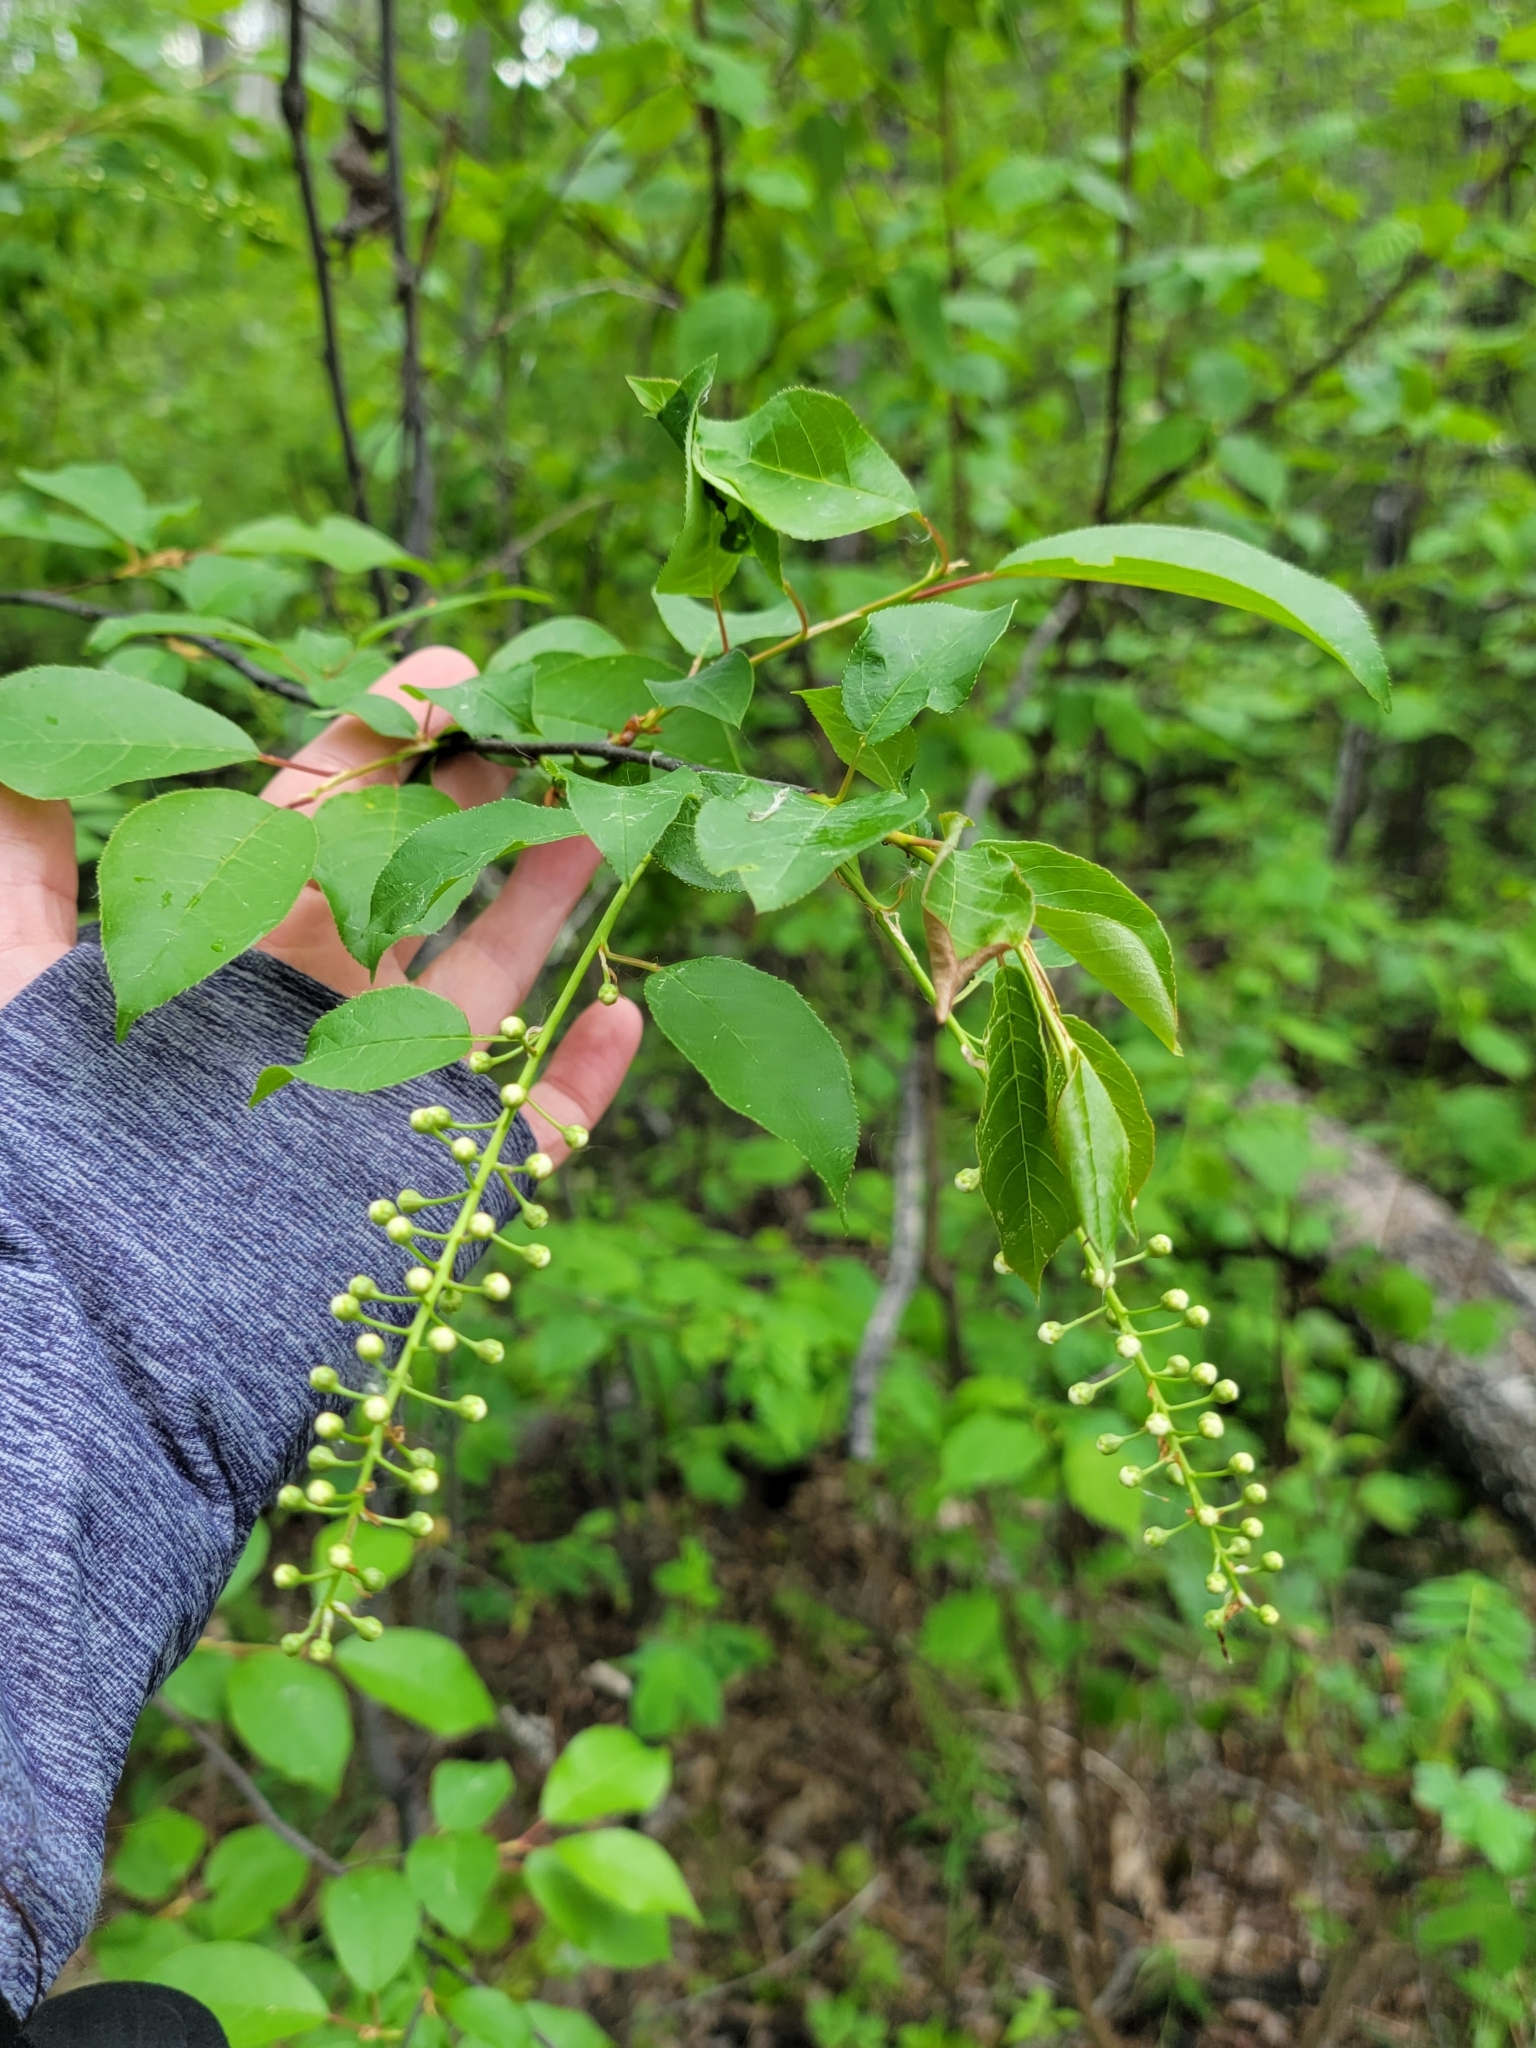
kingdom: Plantae
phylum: Tracheophyta
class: Magnoliopsida
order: Rosales
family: Rosaceae
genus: Prunus
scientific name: Prunus virginiana
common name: Chokecherry
